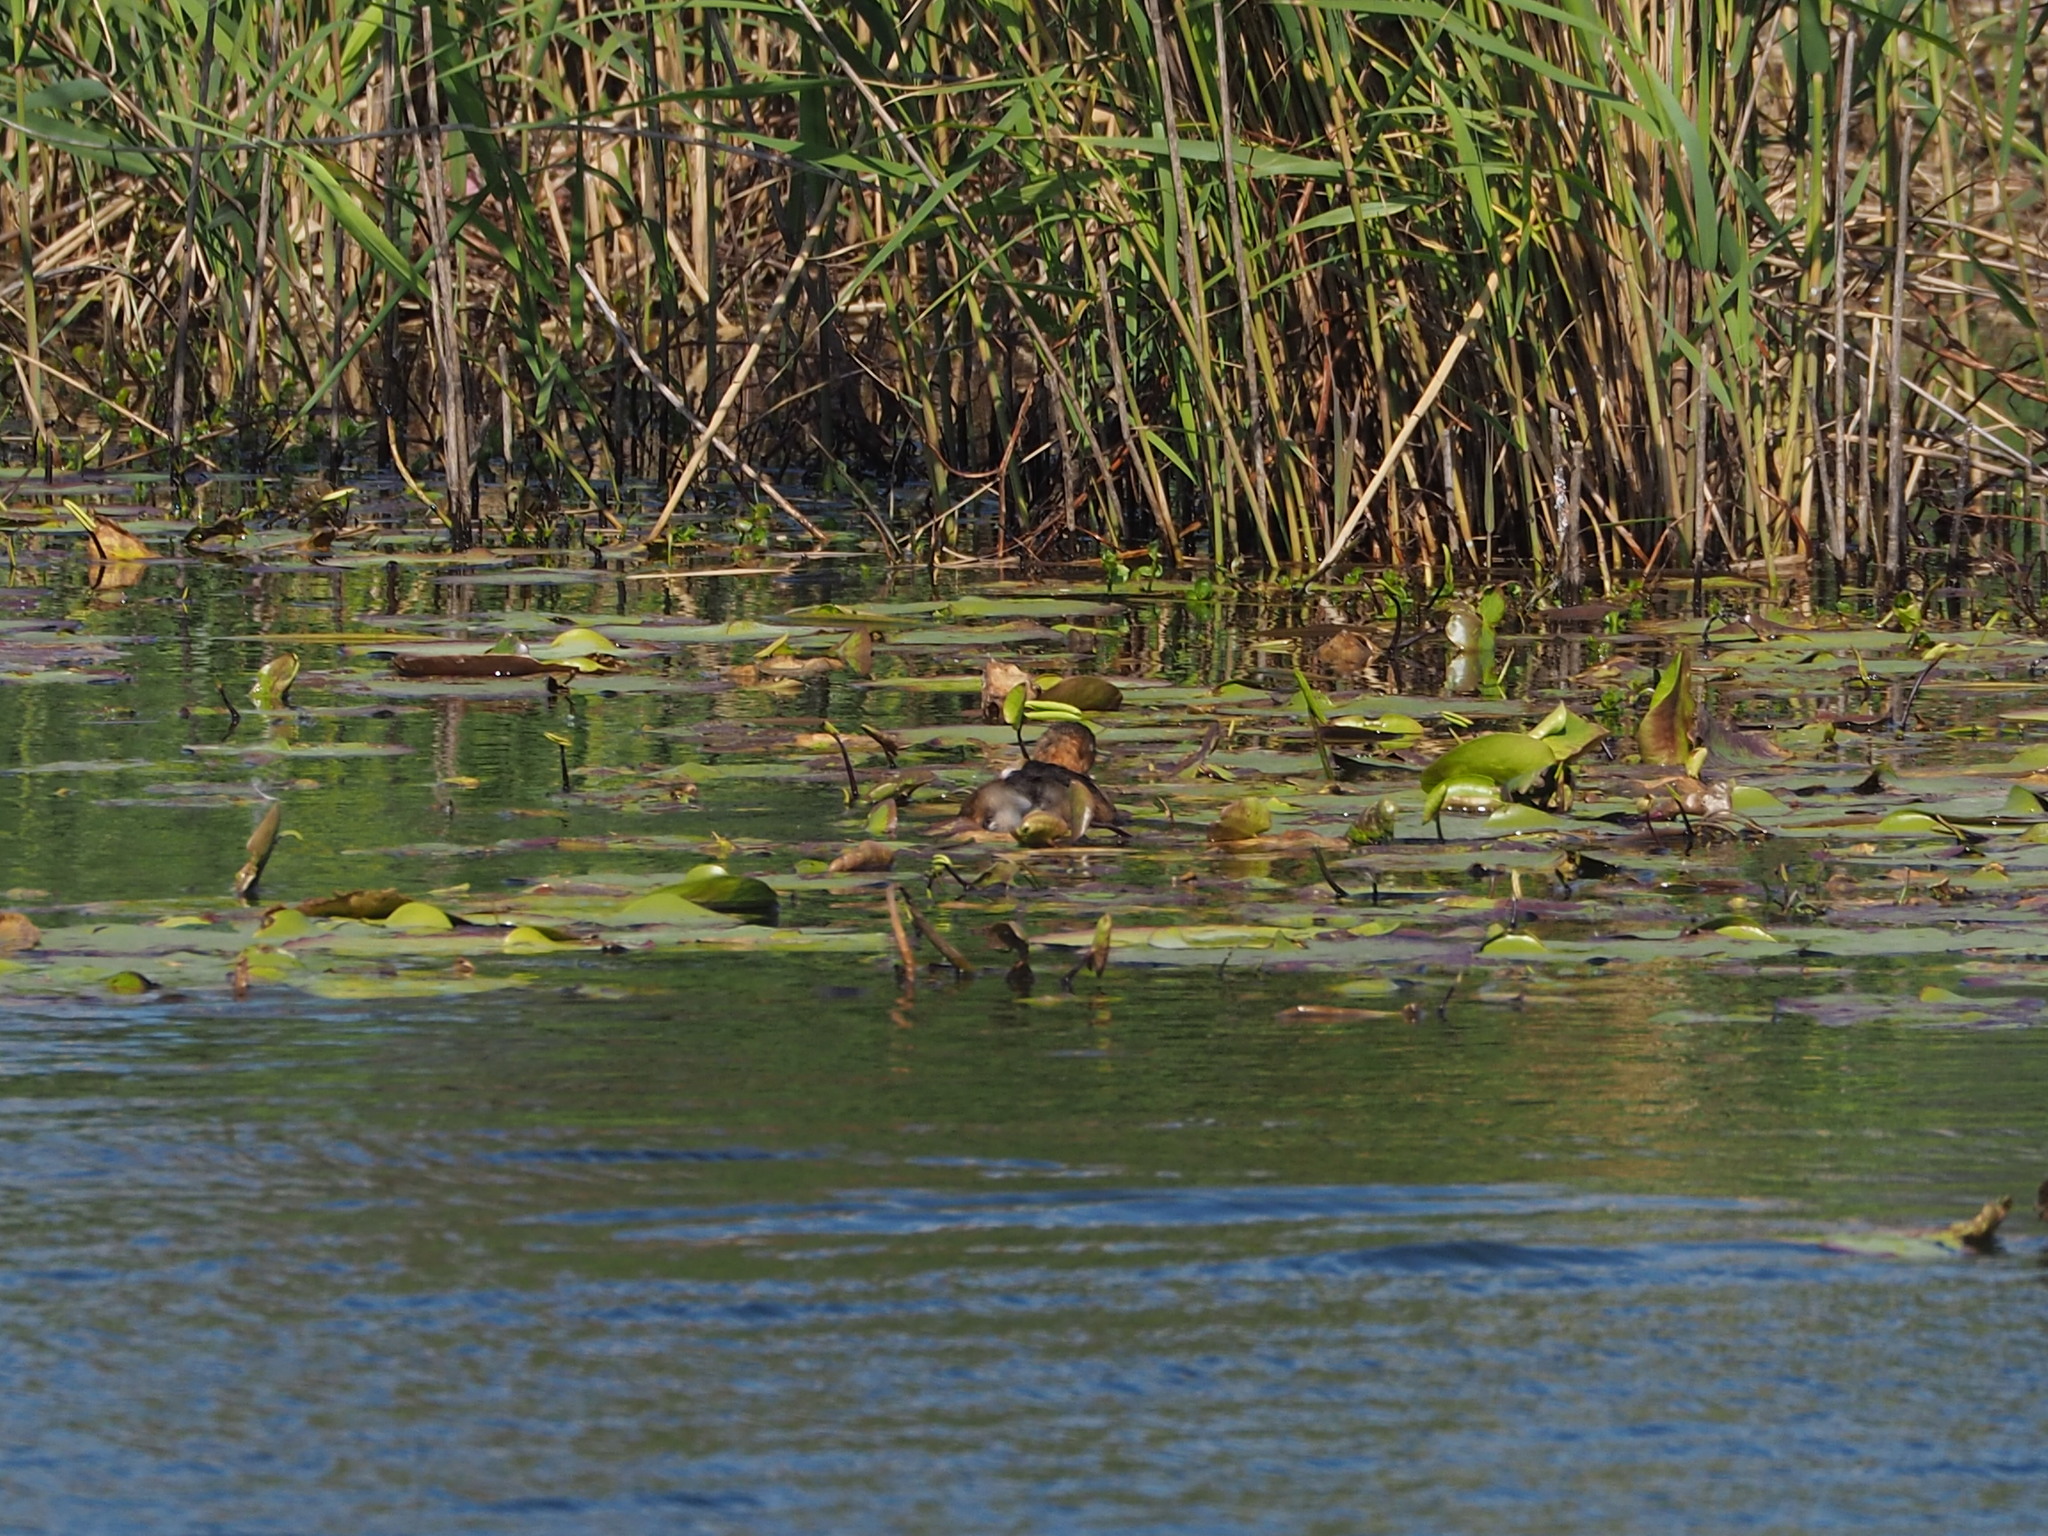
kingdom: Animalia
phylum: Chordata
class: Aves
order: Podicipediformes
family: Podicipedidae
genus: Tachybaptus
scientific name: Tachybaptus ruficollis
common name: Little grebe
